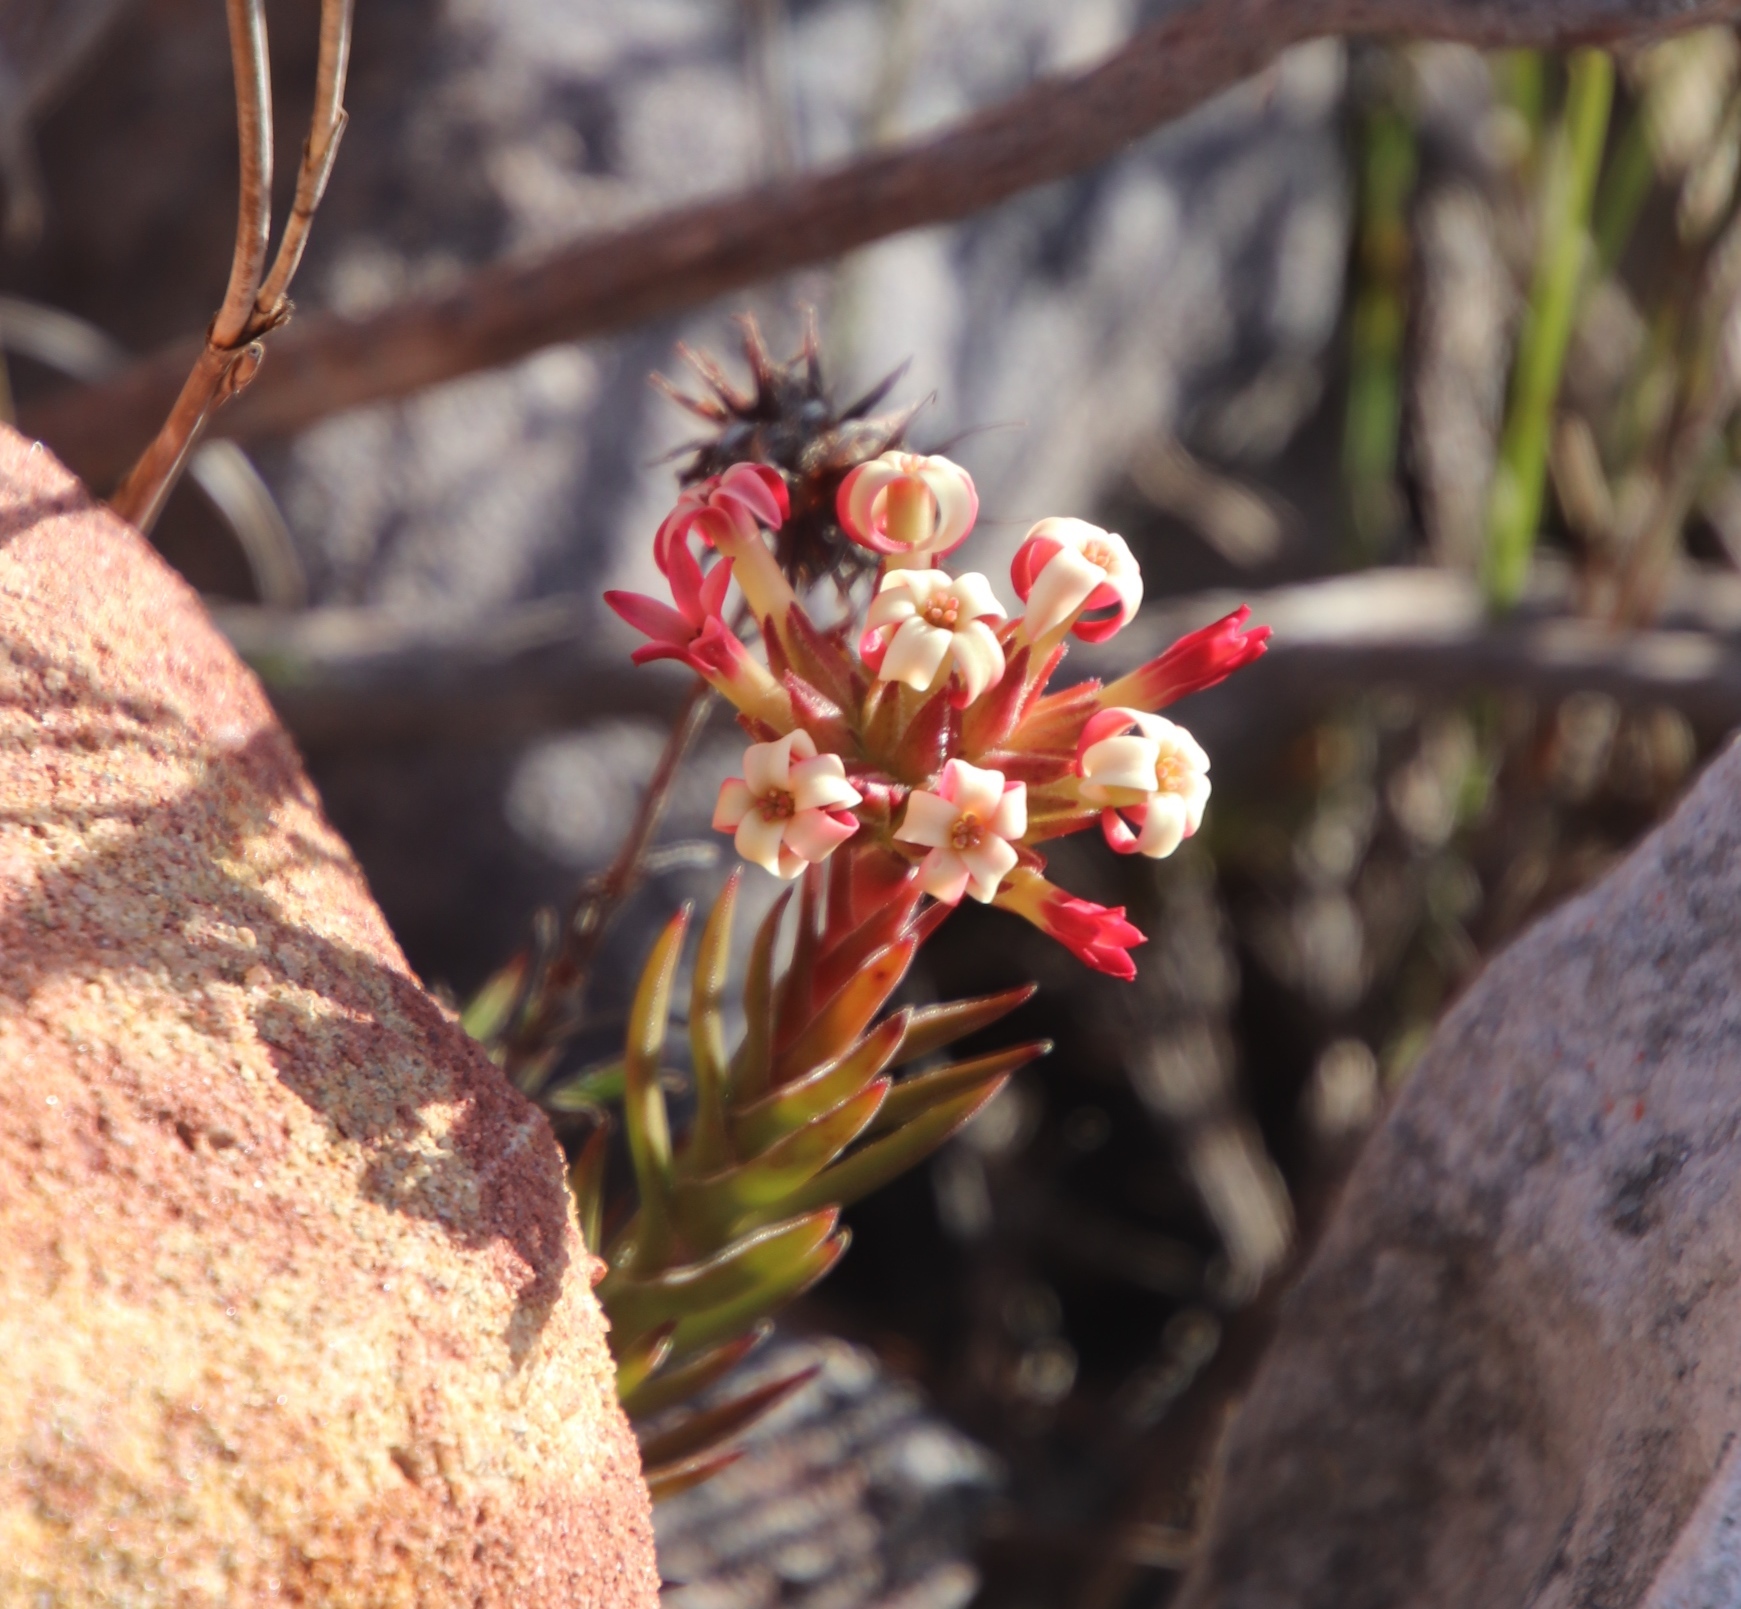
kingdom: Plantae
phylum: Tracheophyta
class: Magnoliopsida
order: Saxifragales
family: Crassulaceae
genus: Crassula
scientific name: Crassula fascicularis
